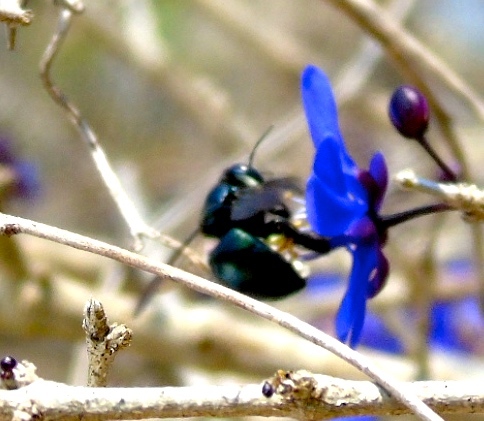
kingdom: Animalia
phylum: Arthropoda
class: Insecta
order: Hymenoptera
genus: Schonnherria
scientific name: Schonnherria
